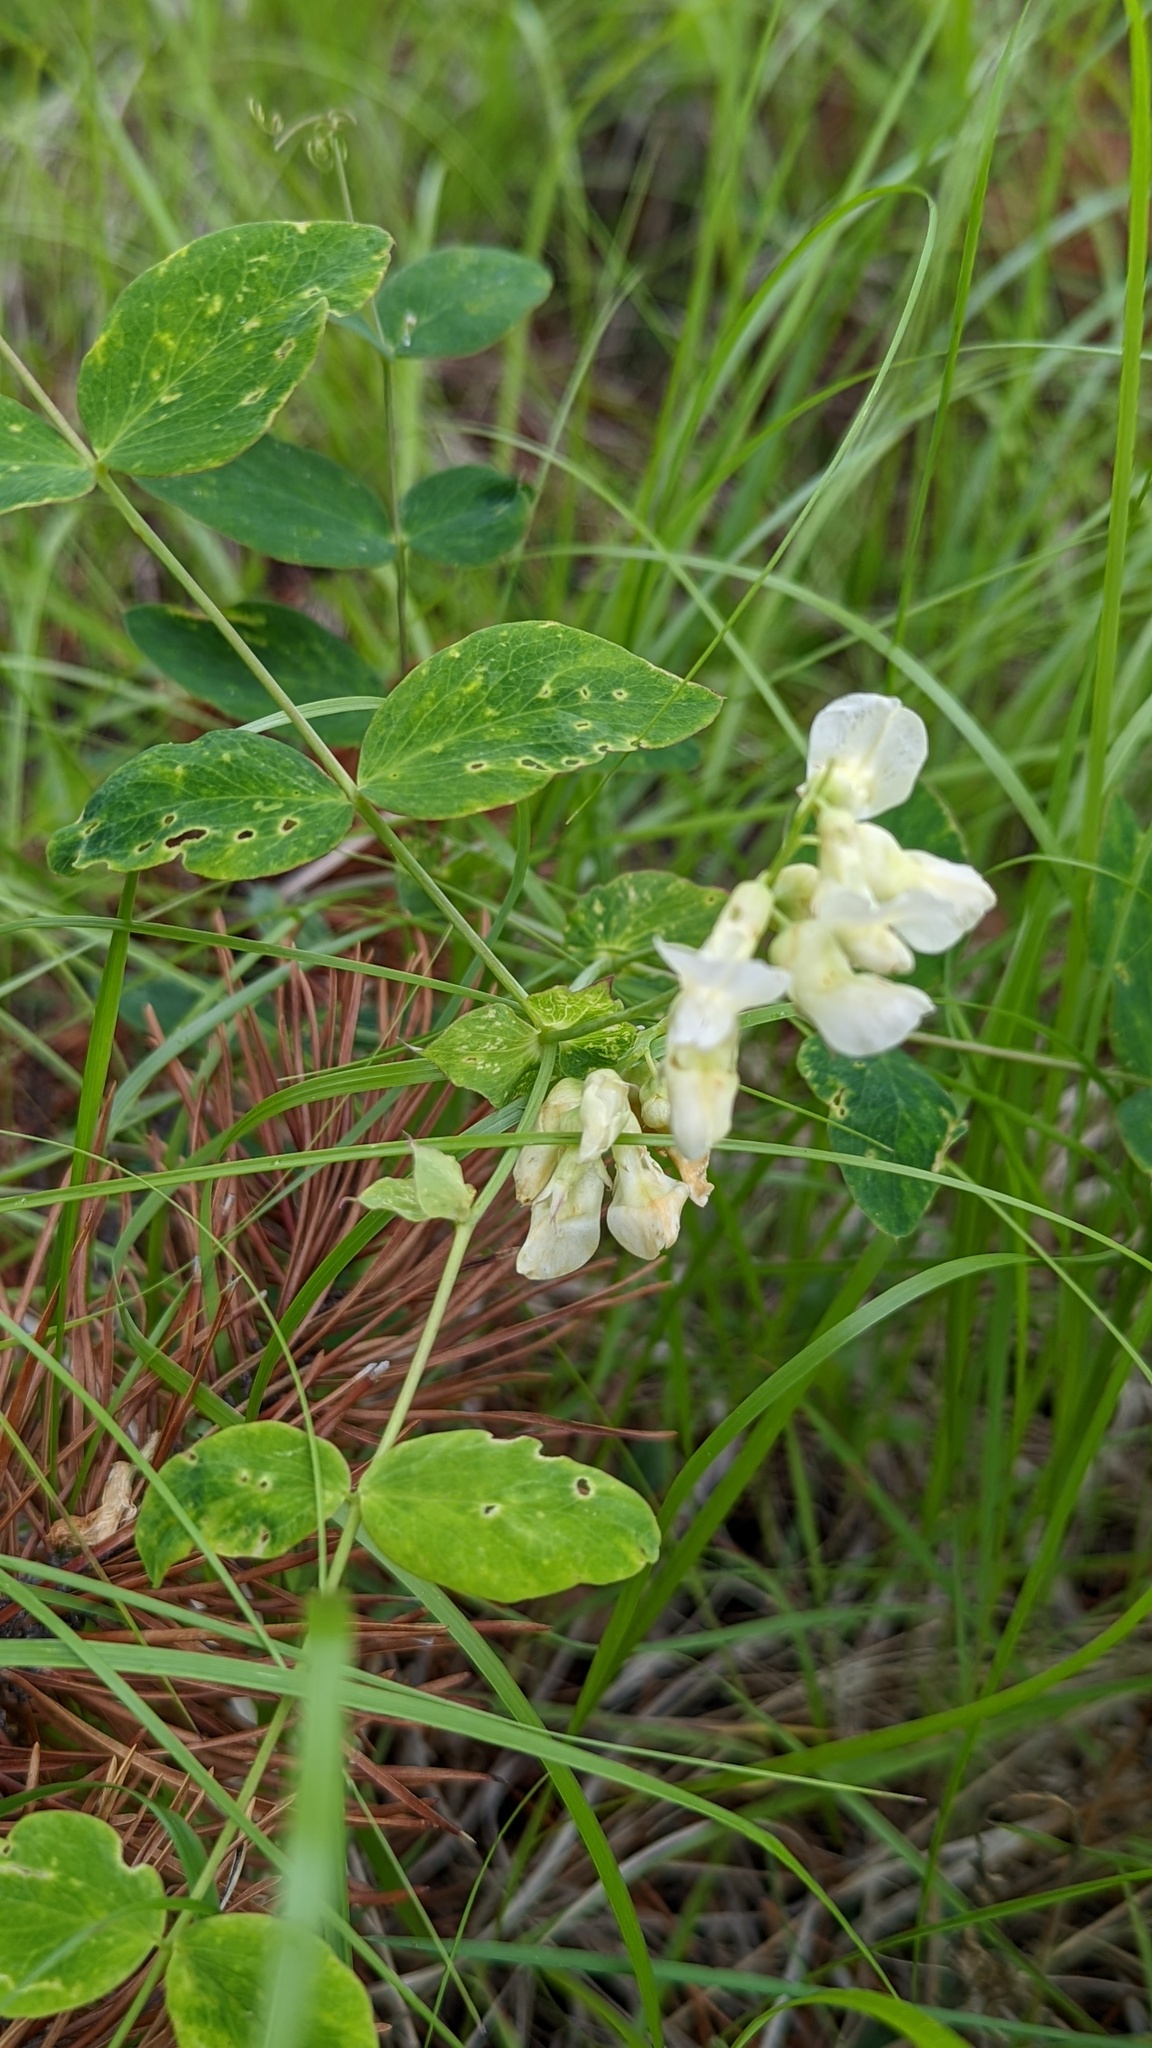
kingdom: Plantae
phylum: Tracheophyta
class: Magnoliopsida
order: Fabales
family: Fabaceae
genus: Lathyrus
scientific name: Lathyrus ochroleucus
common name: Pale vetchling
